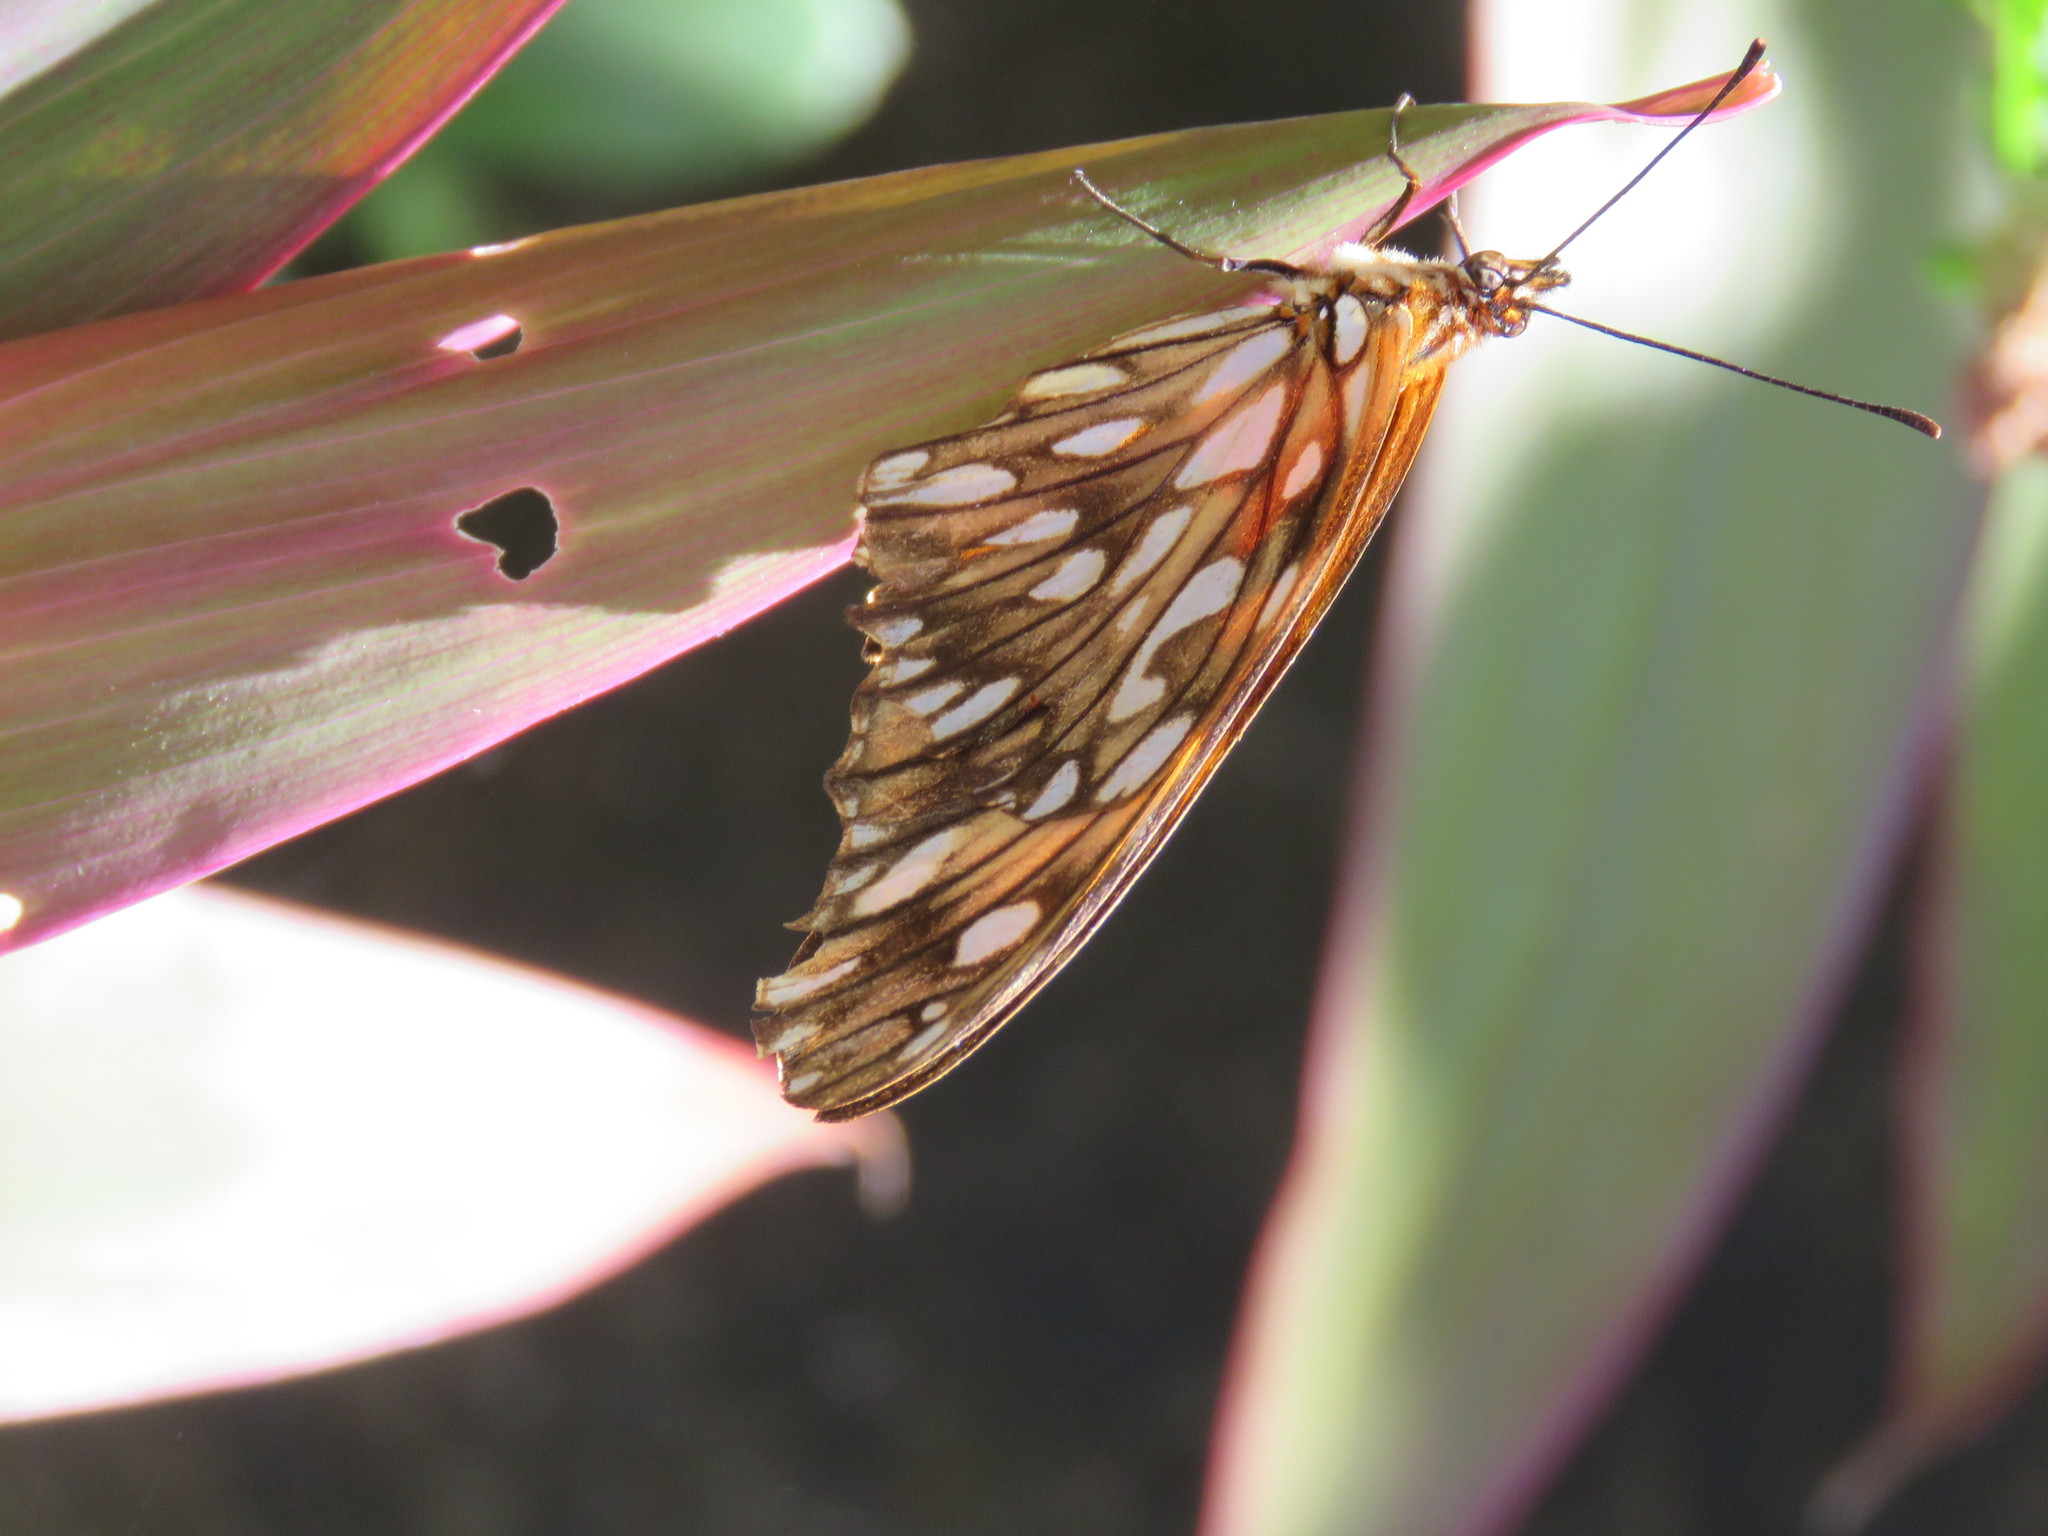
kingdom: Animalia
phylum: Arthropoda
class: Insecta
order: Lepidoptera
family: Nymphalidae
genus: Dione
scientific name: Dione juno
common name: Juno silverspot
